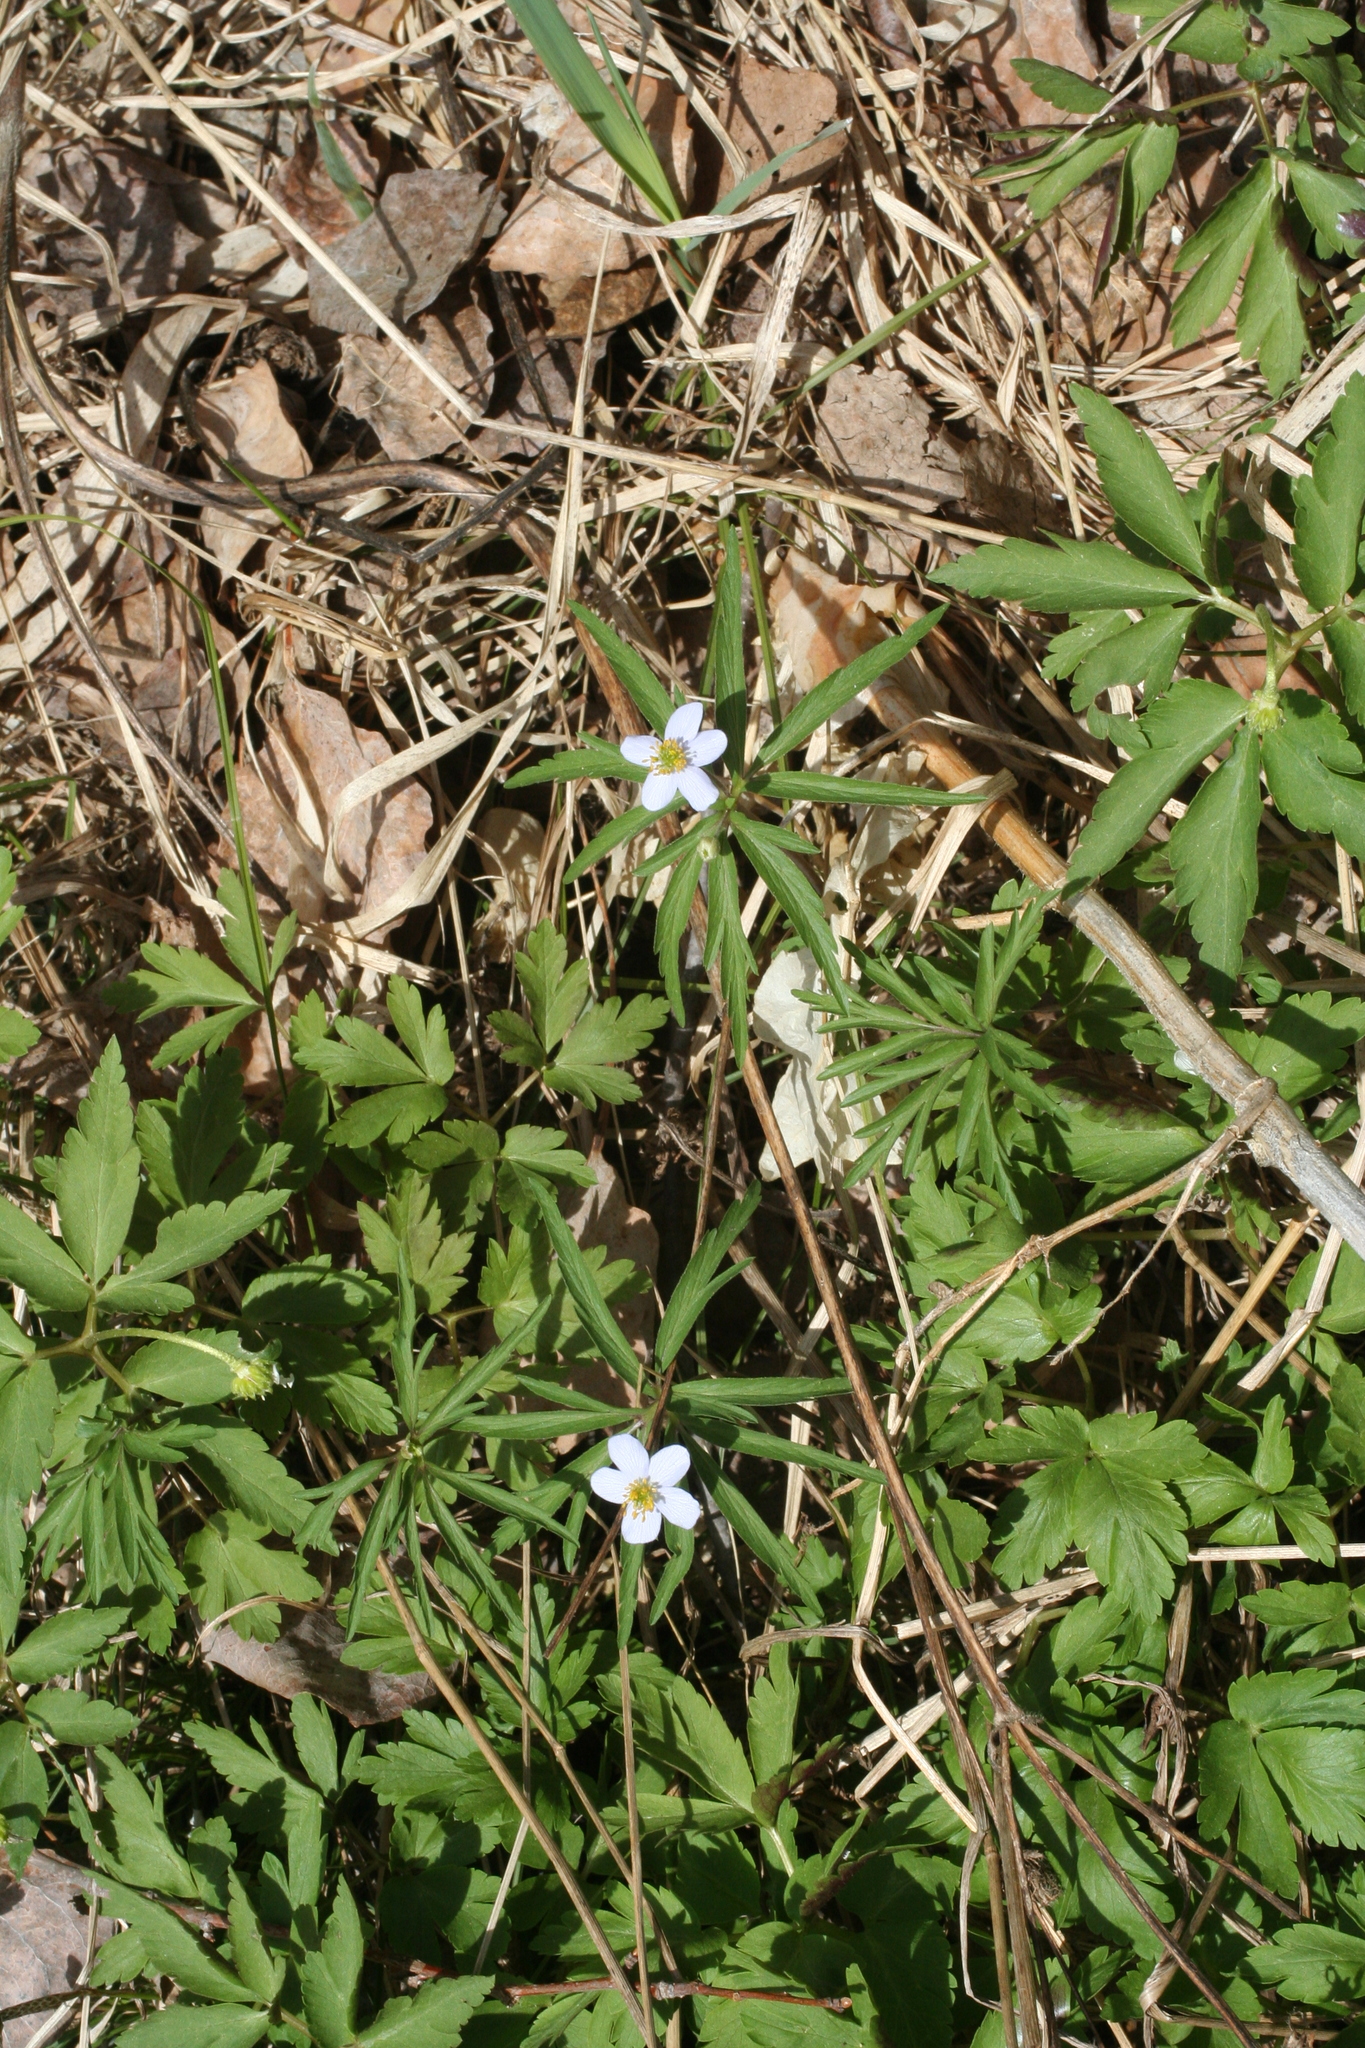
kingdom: Plantae
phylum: Tracheophyta
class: Magnoliopsida
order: Ranunculales
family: Ranunculaceae
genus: Anemone
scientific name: Anemone caerulea
